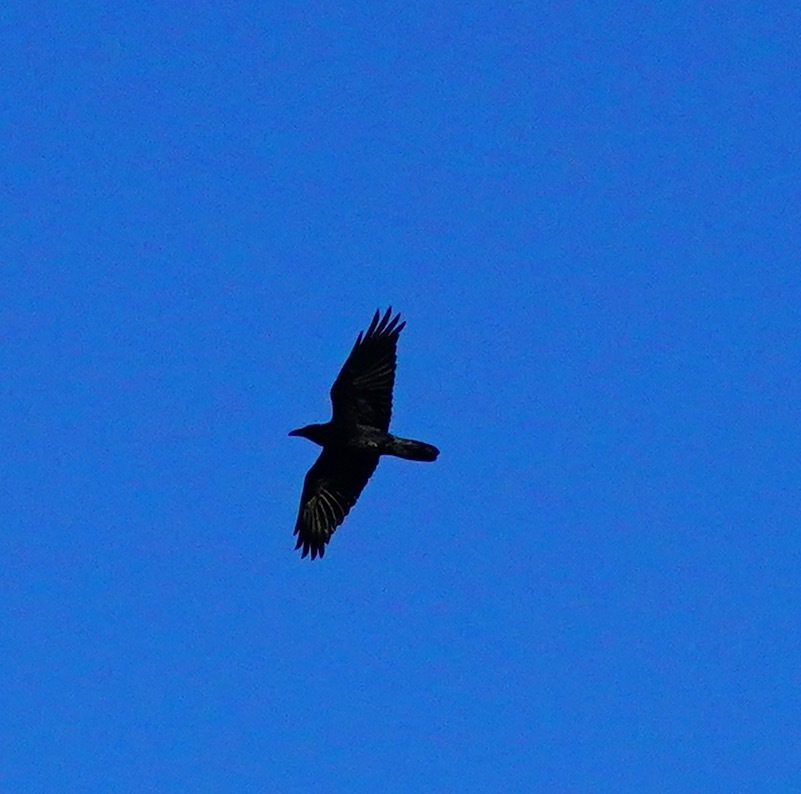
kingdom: Animalia
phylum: Chordata
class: Aves
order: Passeriformes
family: Corvidae
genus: Corvus
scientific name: Corvus corax
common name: Common raven
